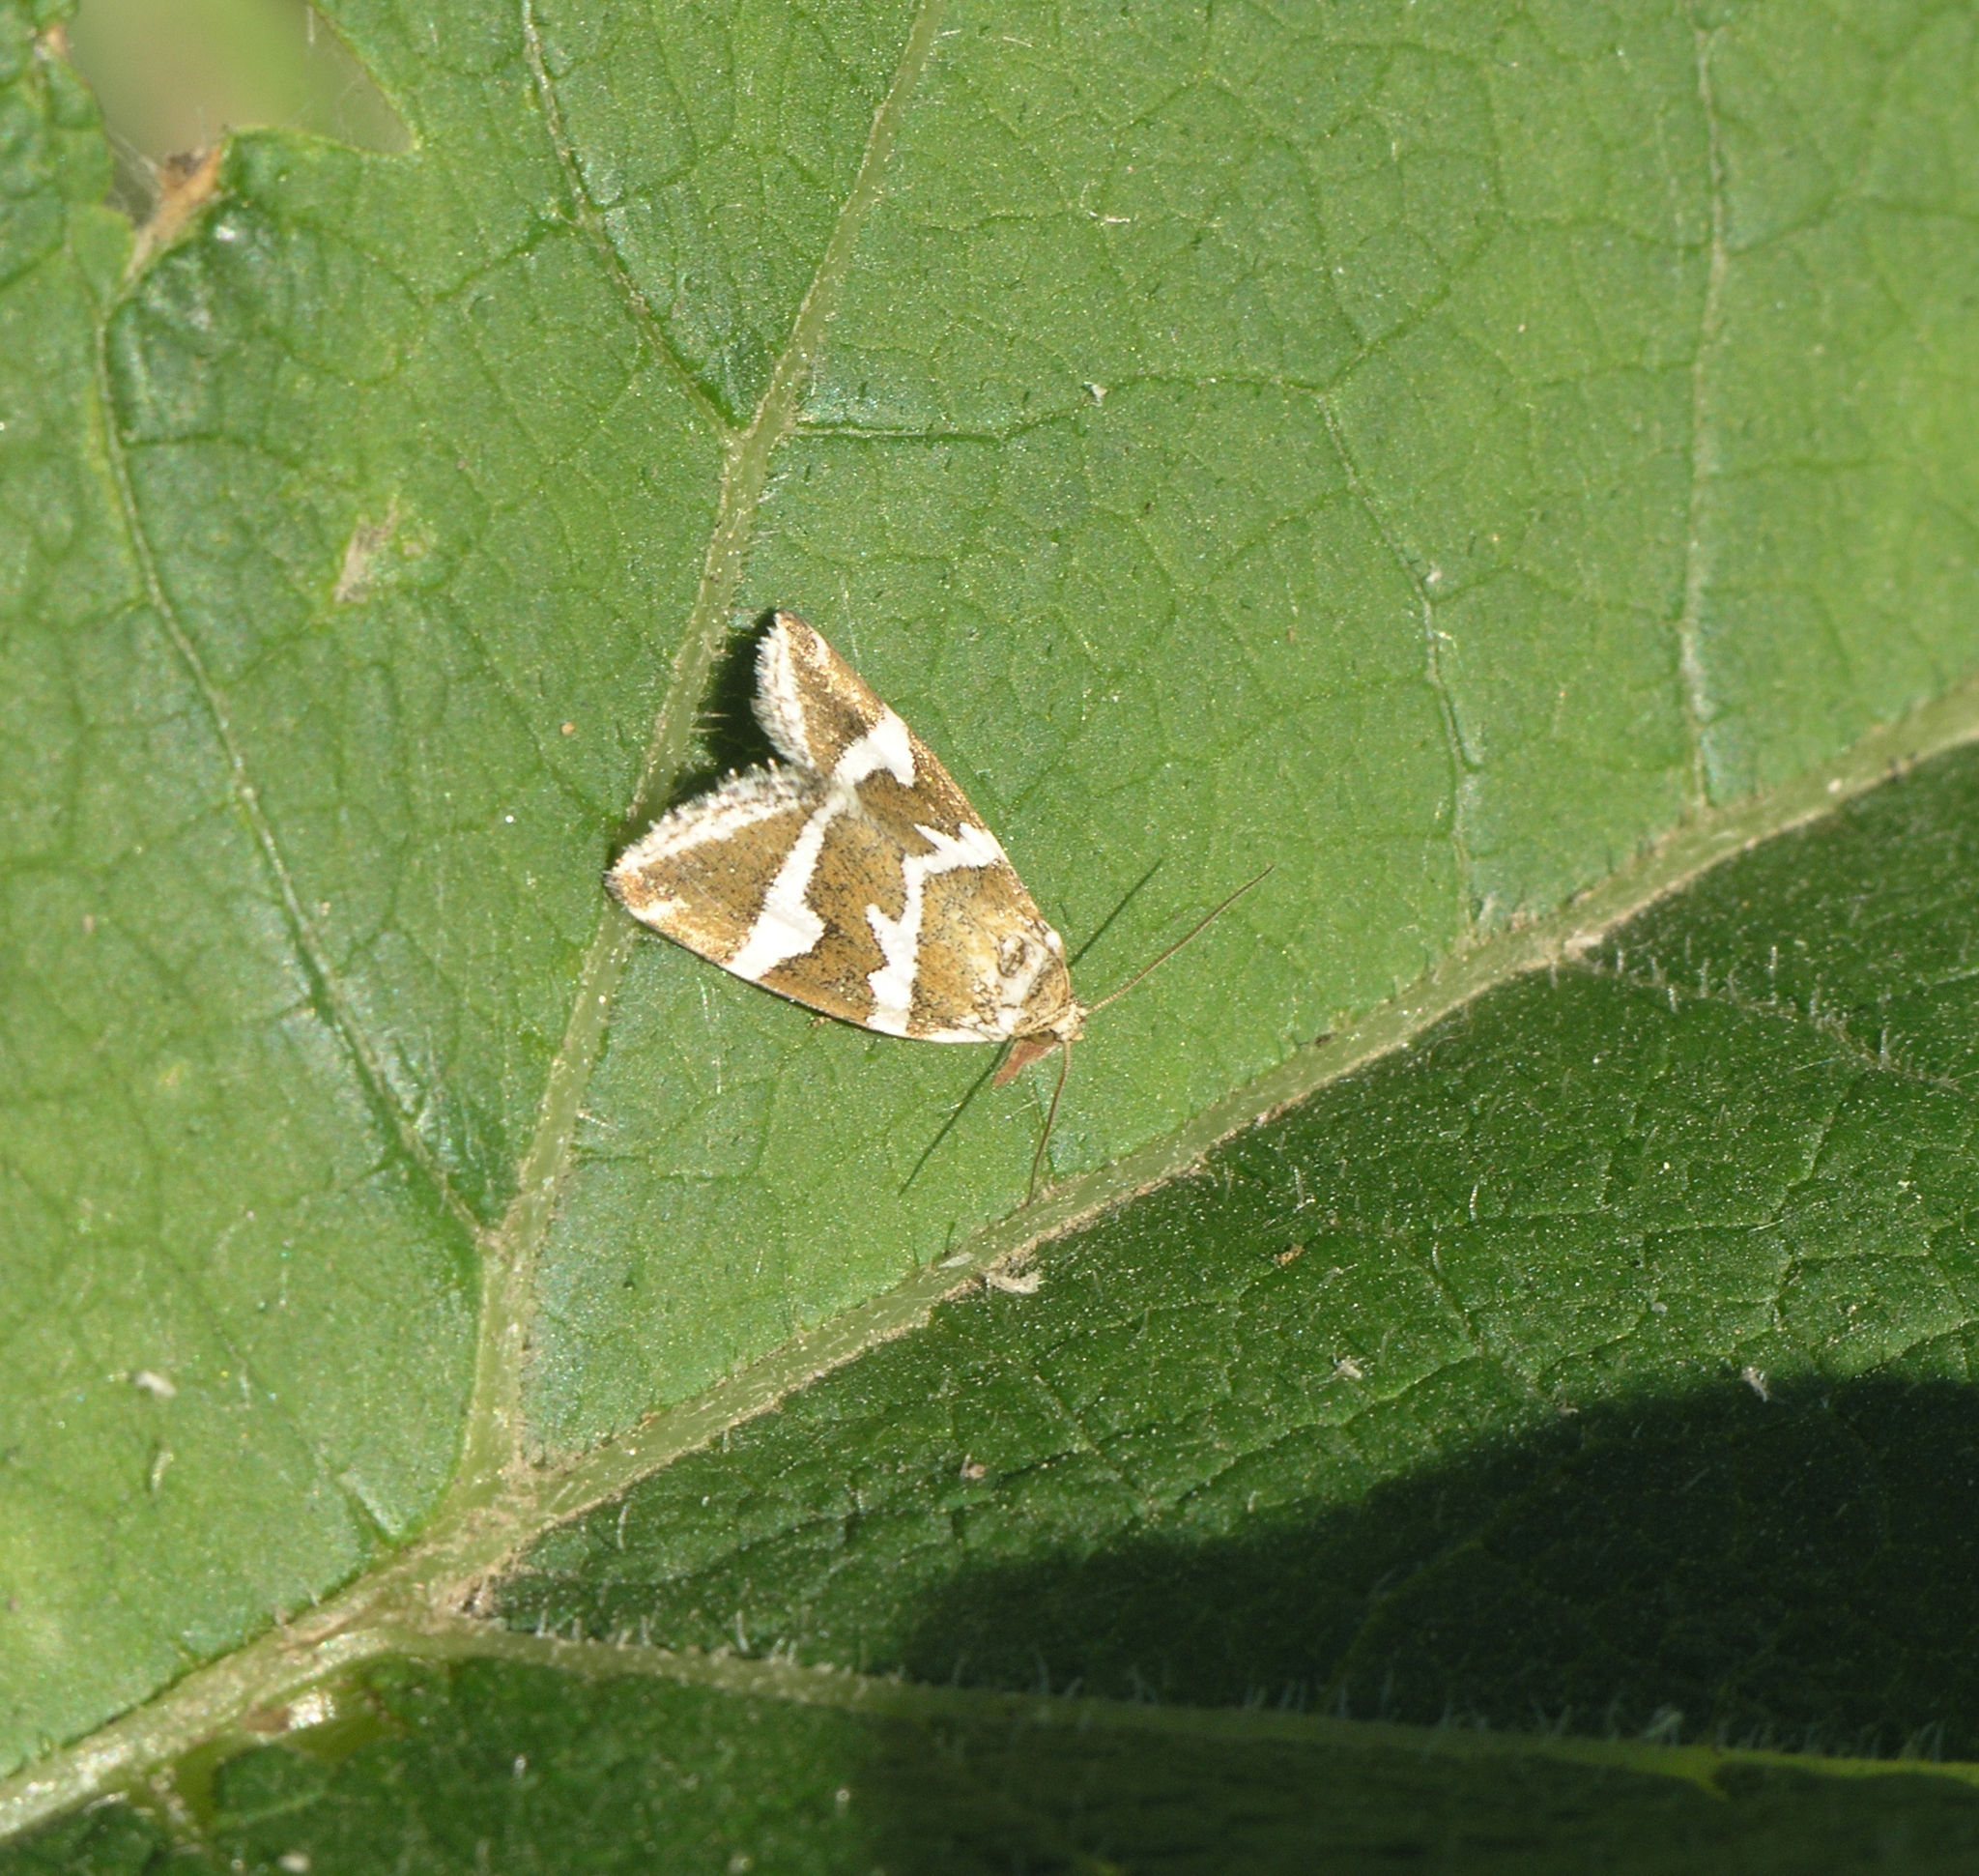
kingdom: Animalia
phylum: Arthropoda
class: Insecta
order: Lepidoptera
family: Noctuidae
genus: Deltote
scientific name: Deltote bankiana
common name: Silver barred
